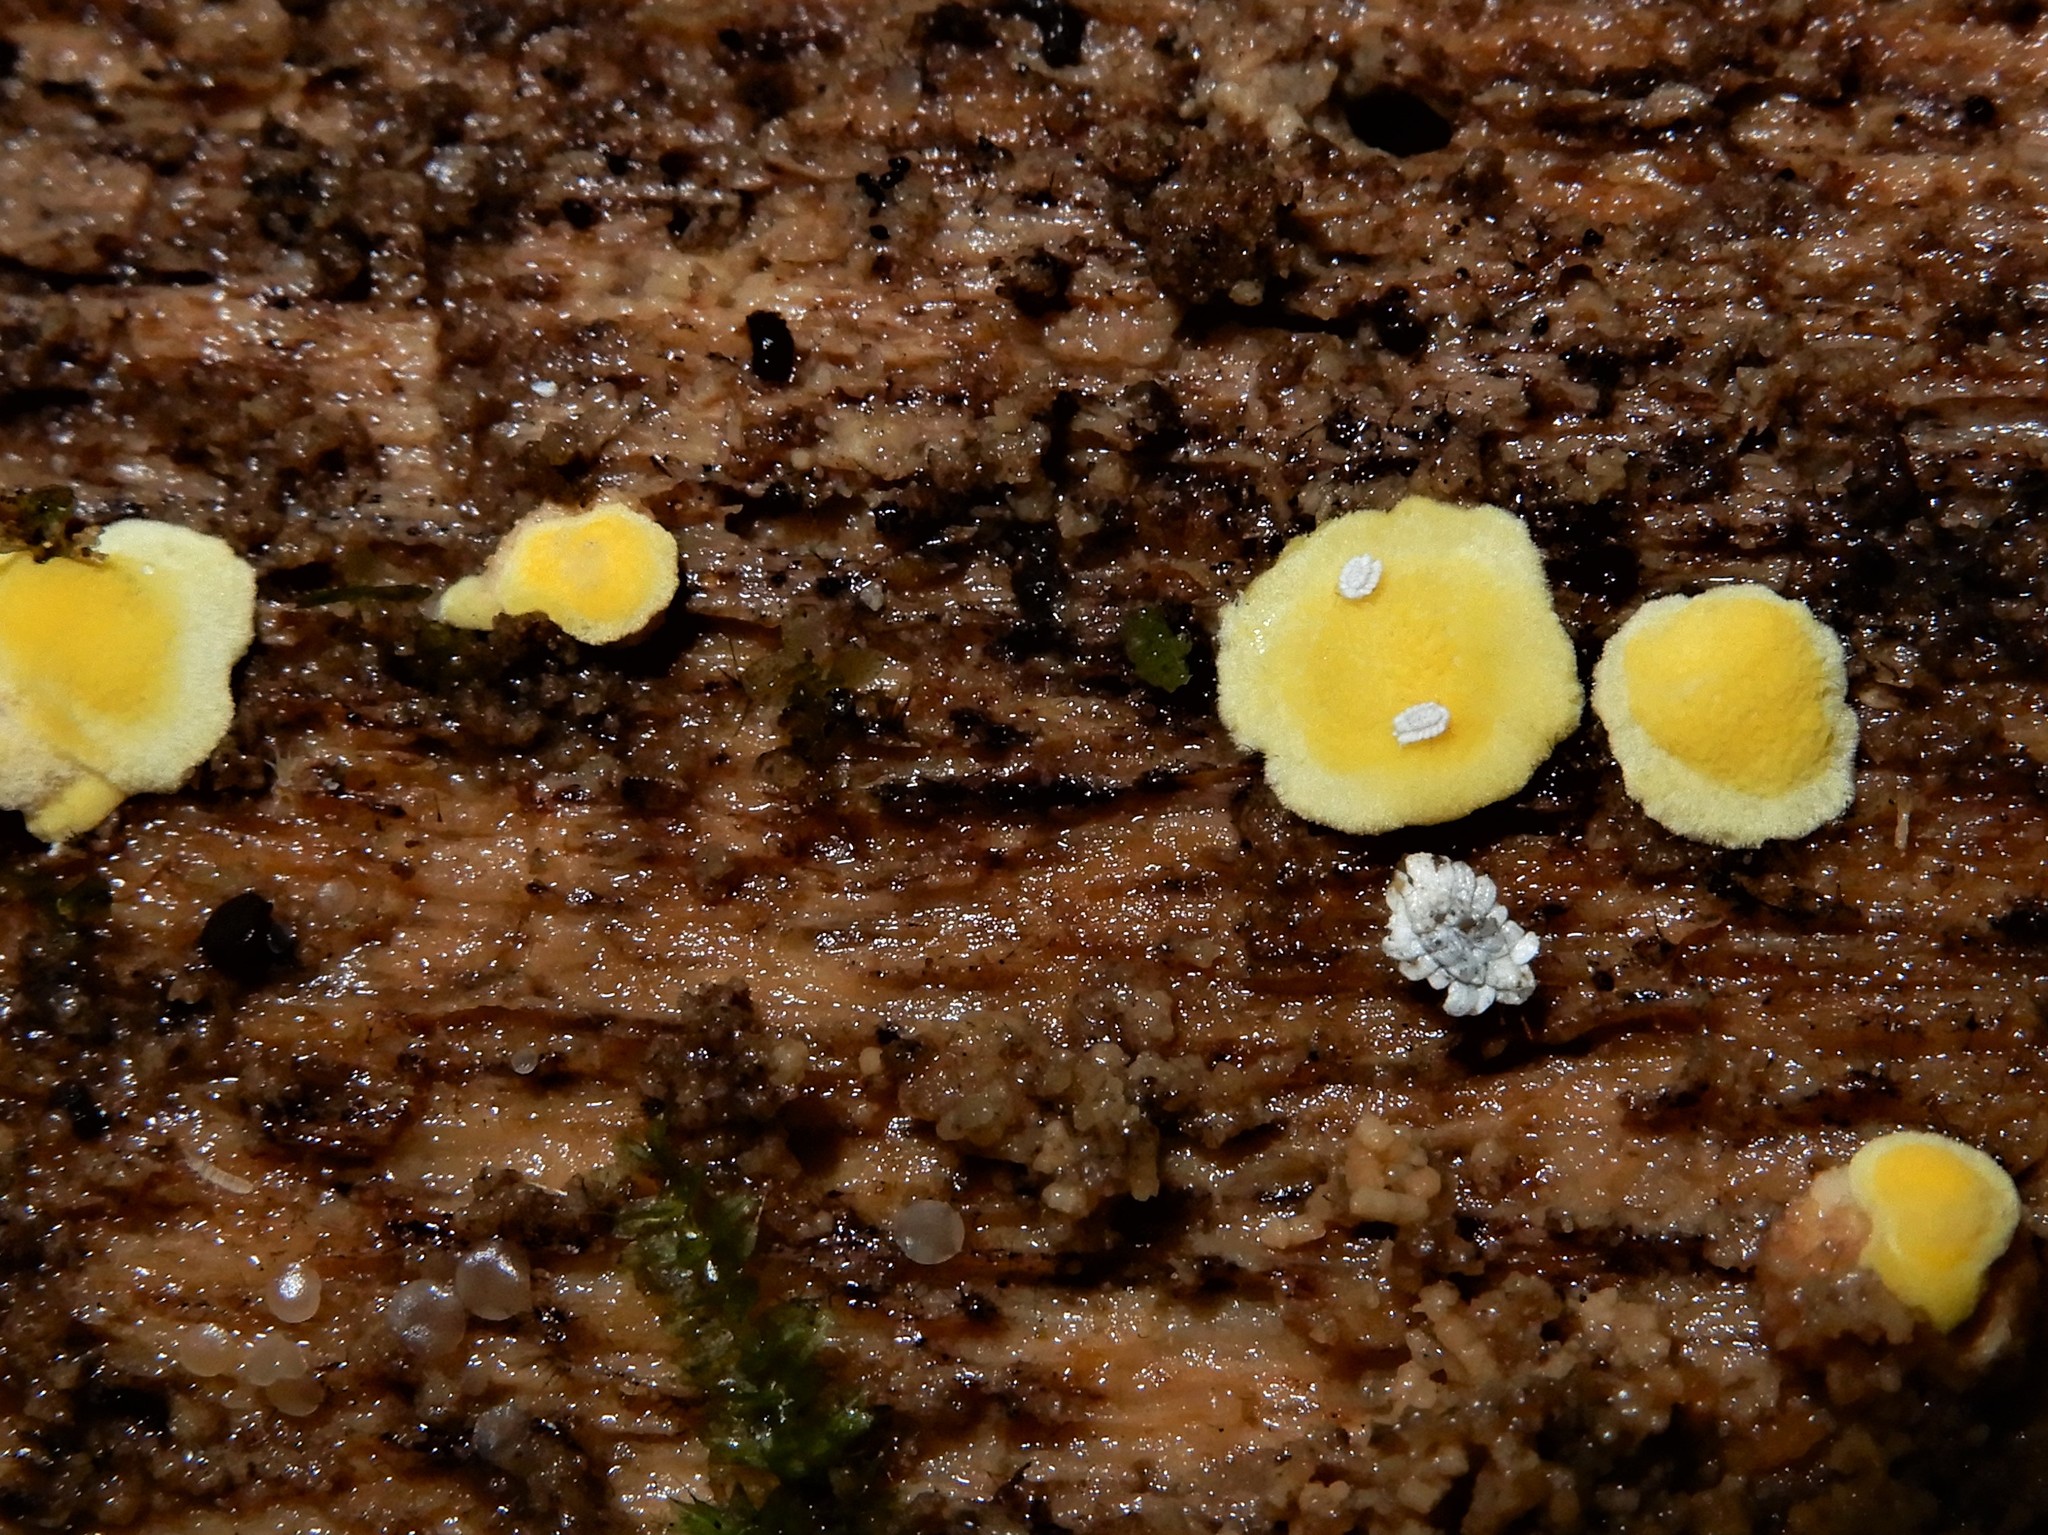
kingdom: Fungi
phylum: Basidiomycota
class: Agaricomycetes
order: Polyporales
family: Steccherinaceae
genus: Flaviporus
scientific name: Flaviporus brownii
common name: Yellowpored bracket
